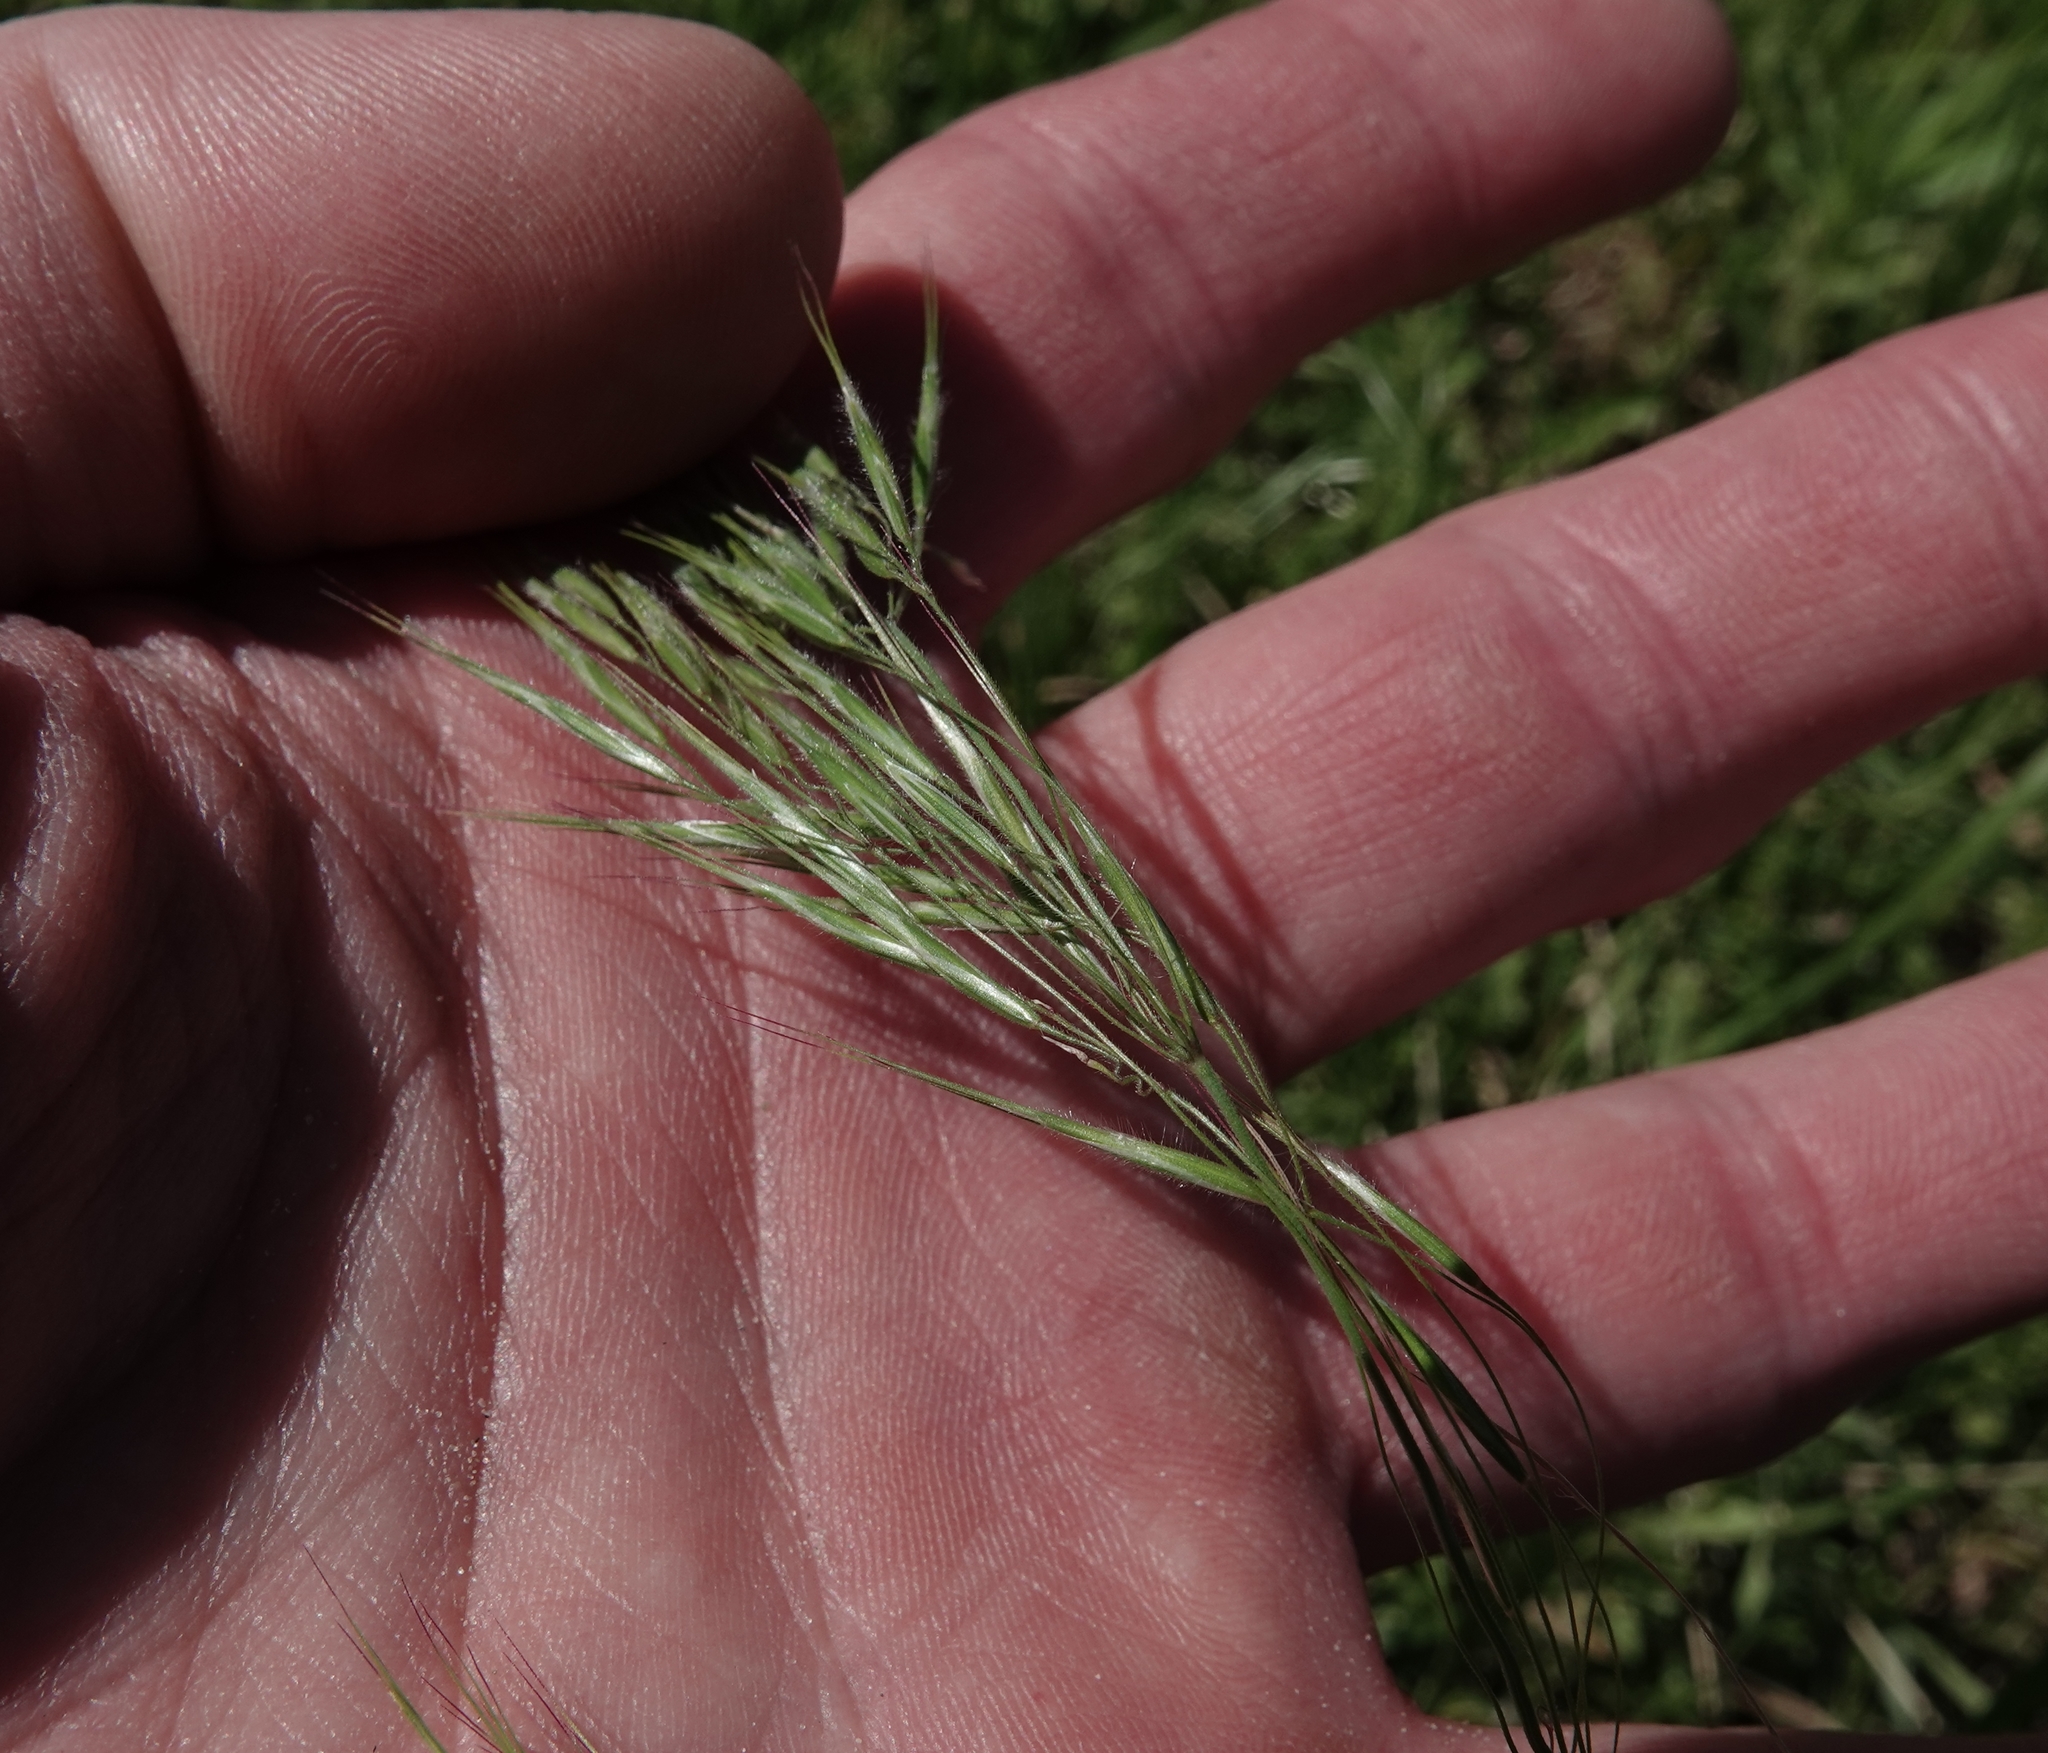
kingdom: Plantae
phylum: Tracheophyta
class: Liliopsida
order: Poales
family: Poaceae
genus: Bromus
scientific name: Bromus tectorum
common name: Cheatgrass
